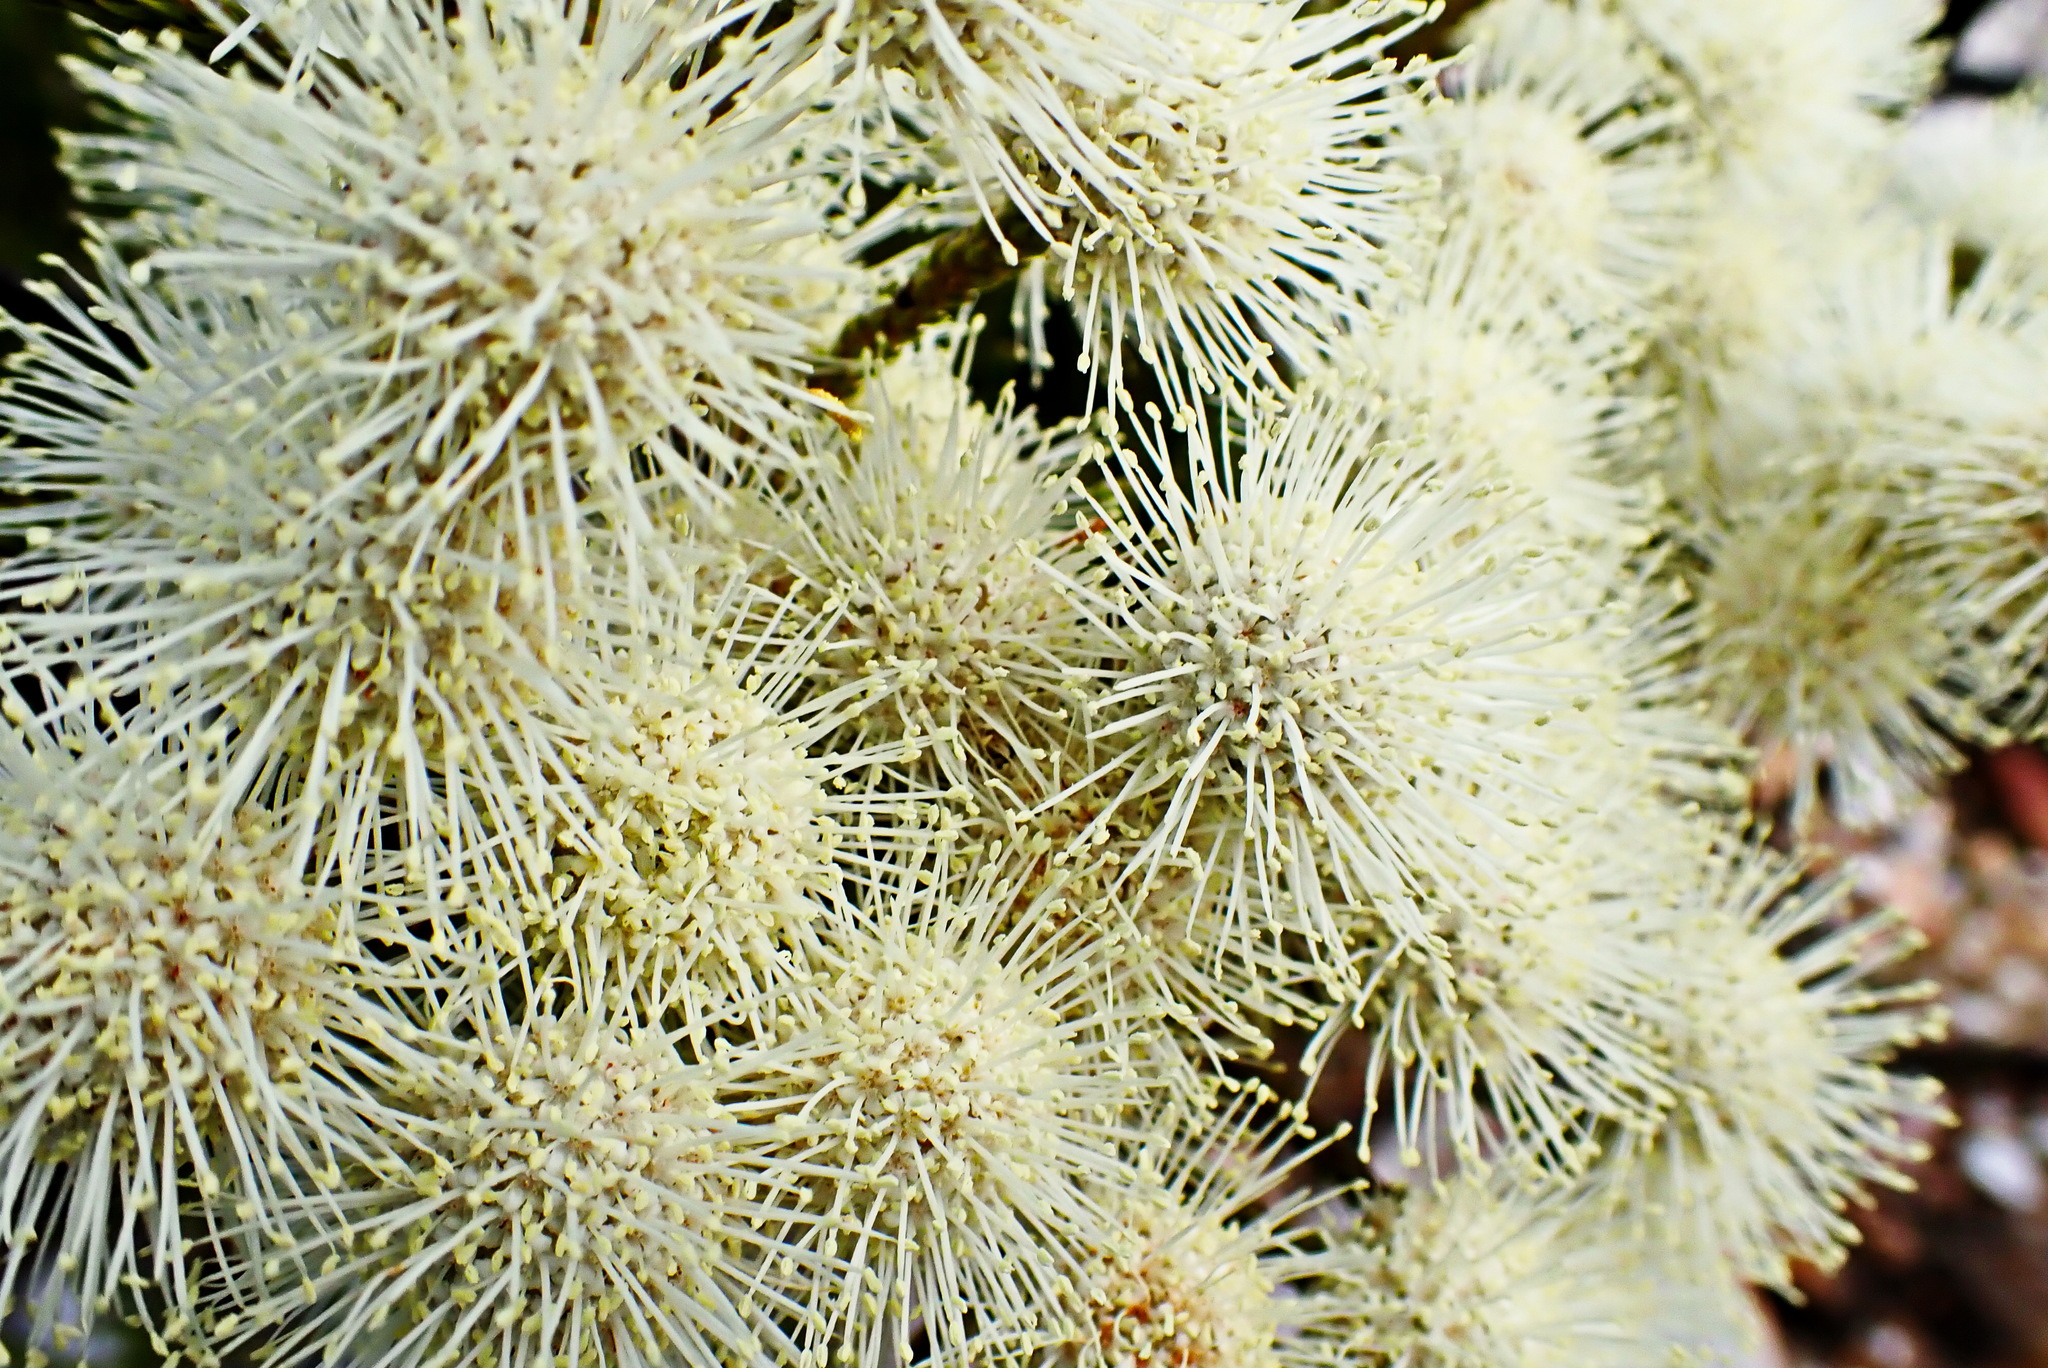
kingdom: Plantae
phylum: Tracheophyta
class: Magnoliopsida
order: Bruniales
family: Bruniaceae
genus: Brunia
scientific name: Brunia noduliflora
